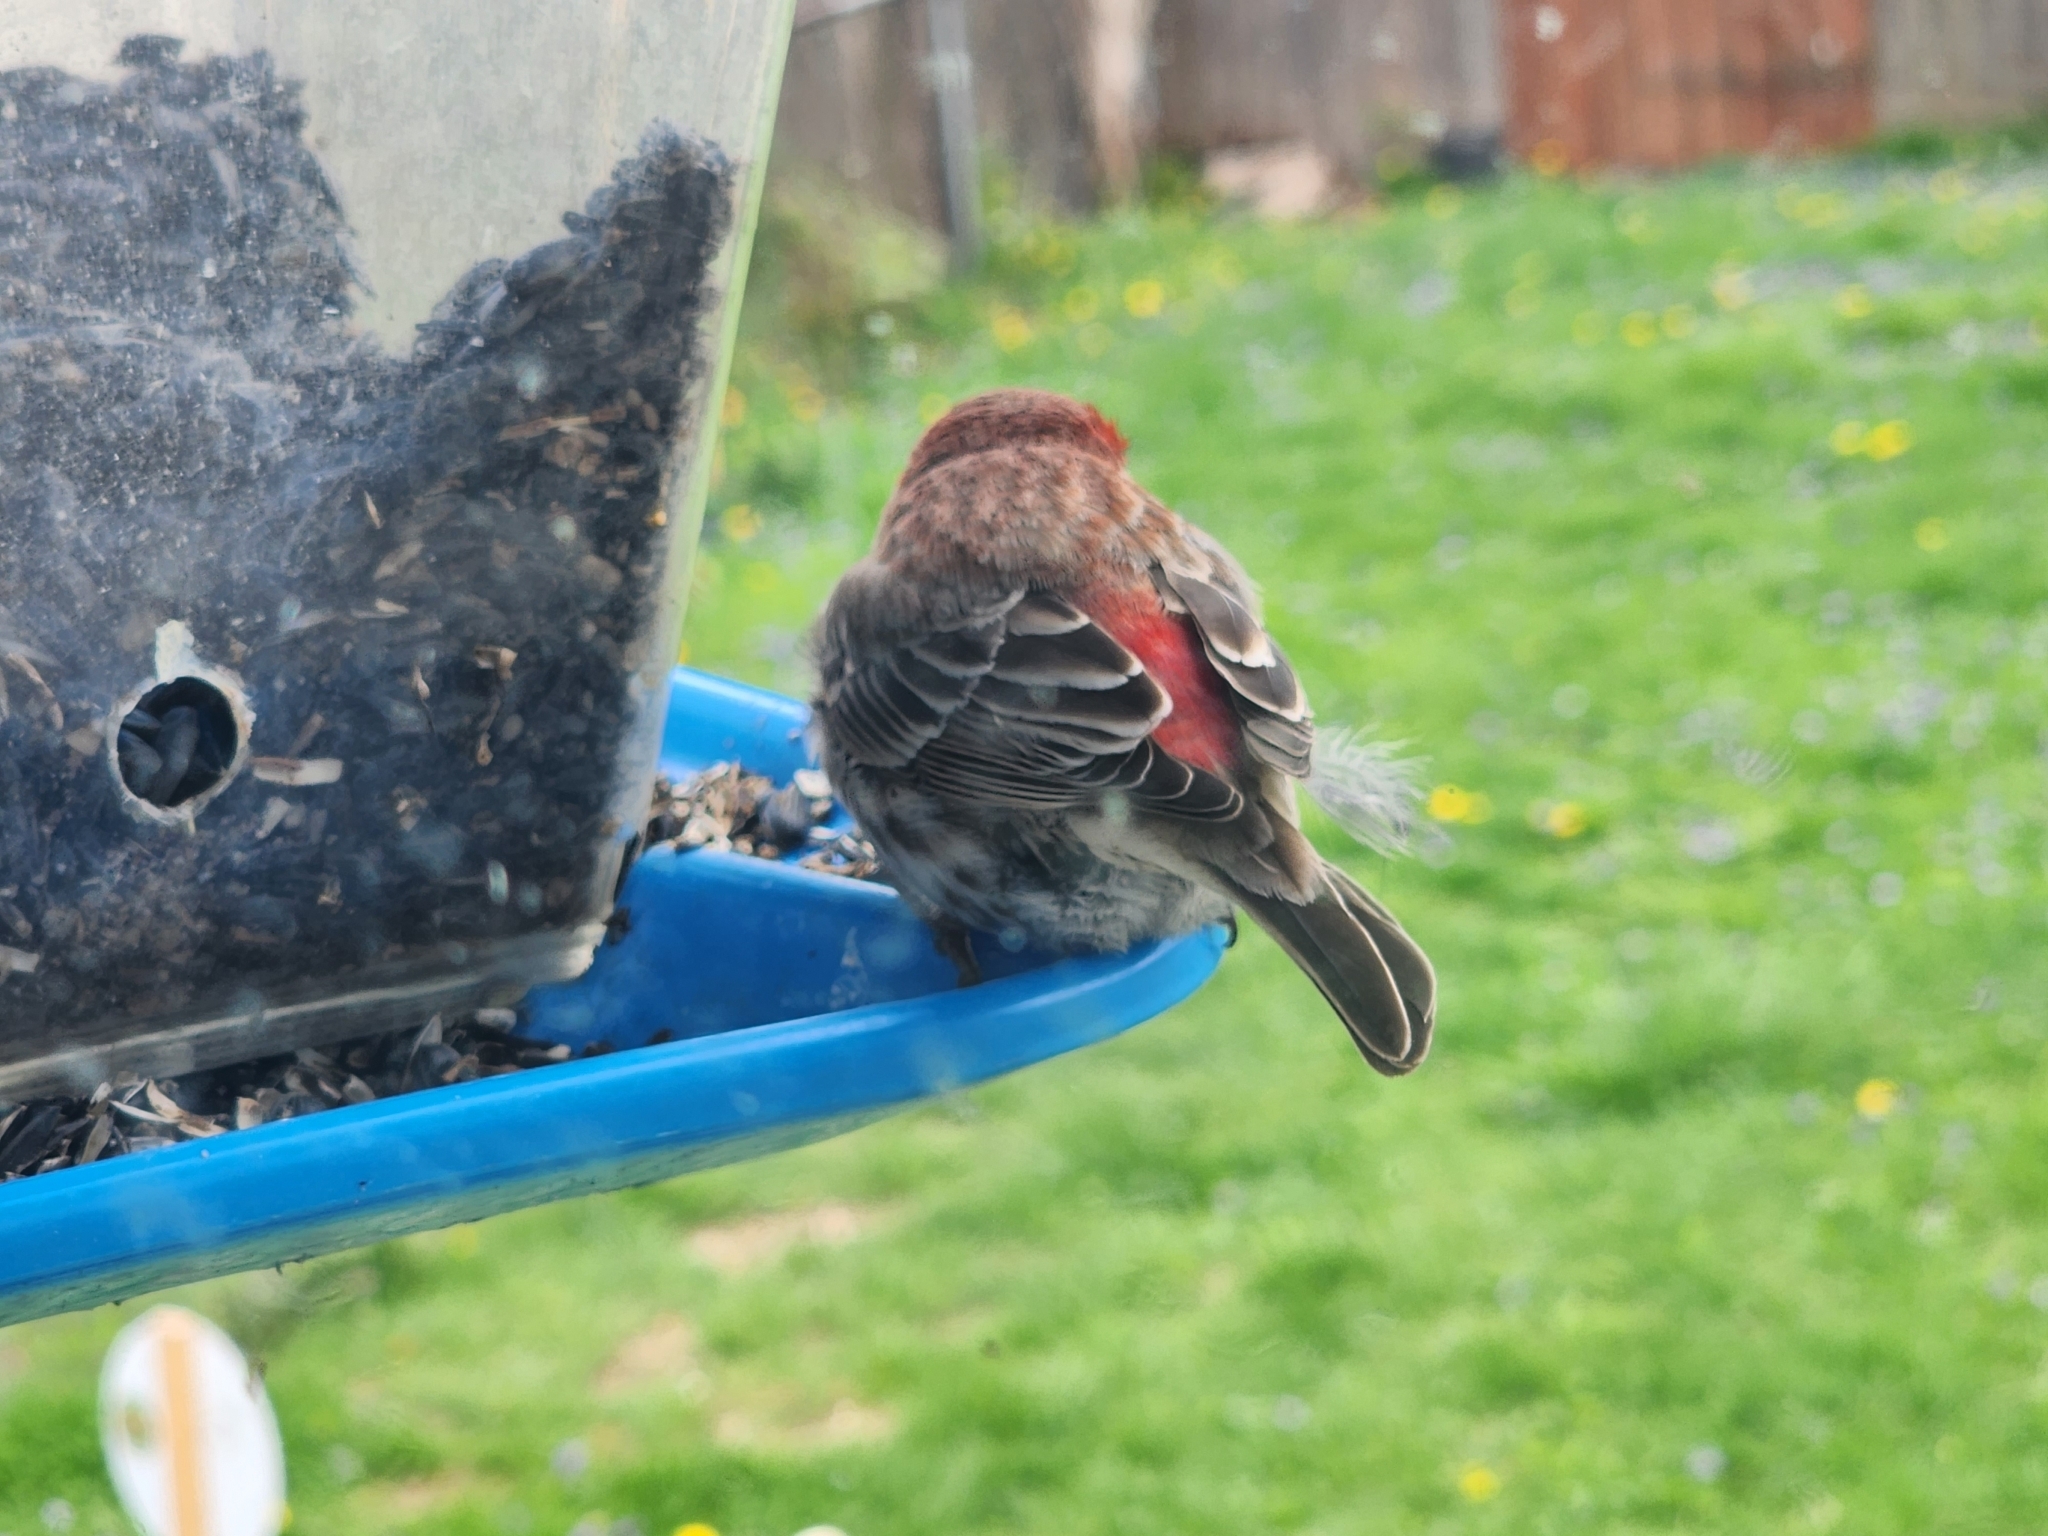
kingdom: Animalia
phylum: Chordata
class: Aves
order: Passeriformes
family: Fringillidae
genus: Haemorhous
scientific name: Haemorhous mexicanus
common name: House finch
